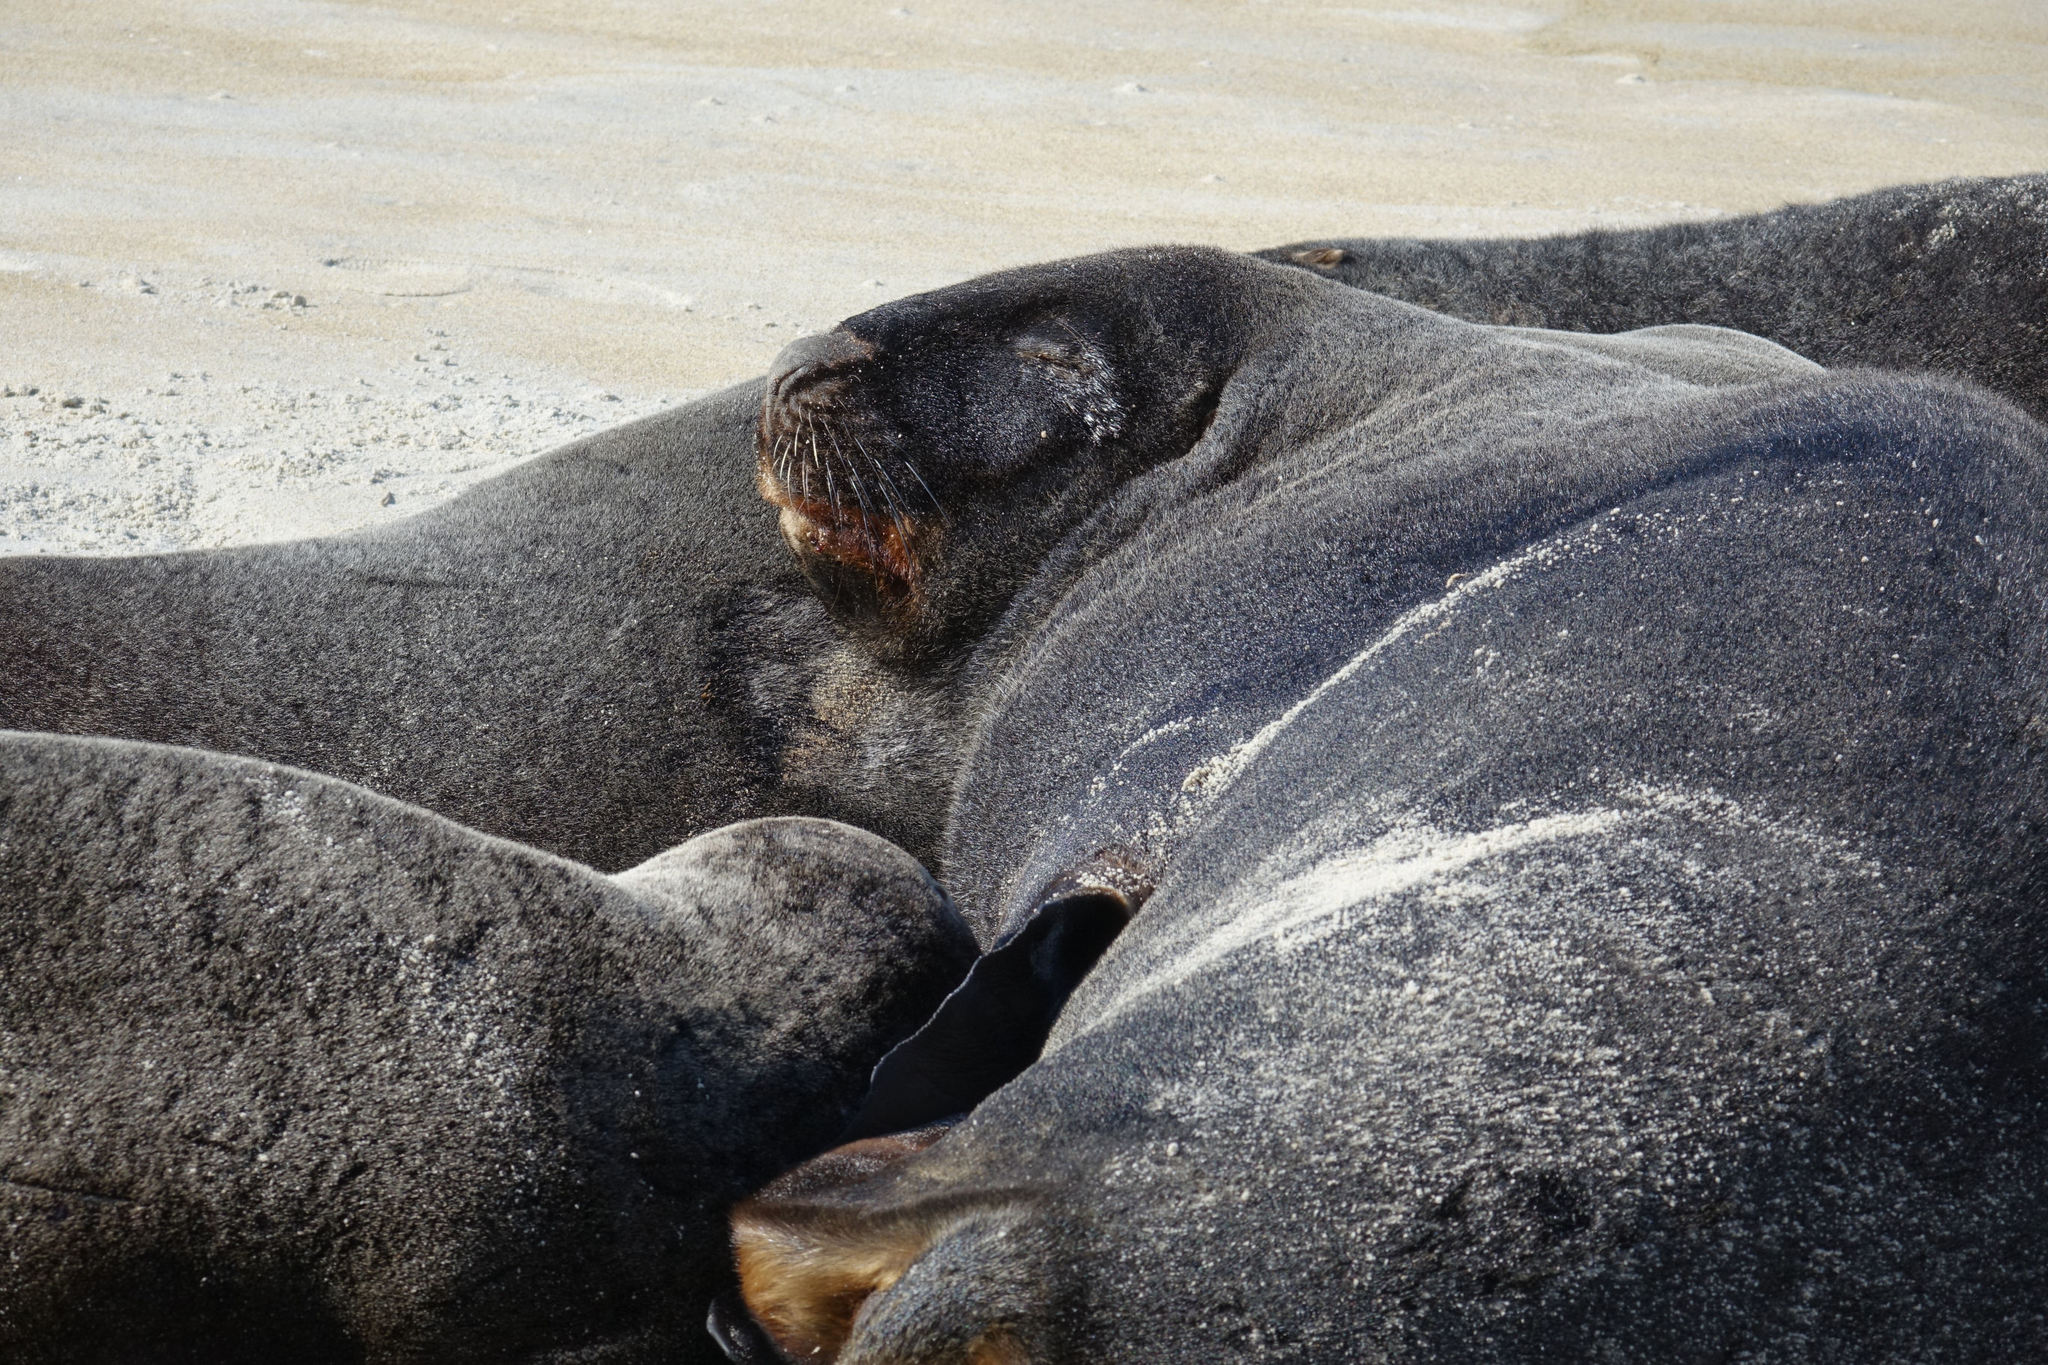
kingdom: Animalia
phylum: Chordata
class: Mammalia
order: Carnivora
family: Otariidae
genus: Phocarctos
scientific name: Phocarctos hookeri
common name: New zealand sea lion
